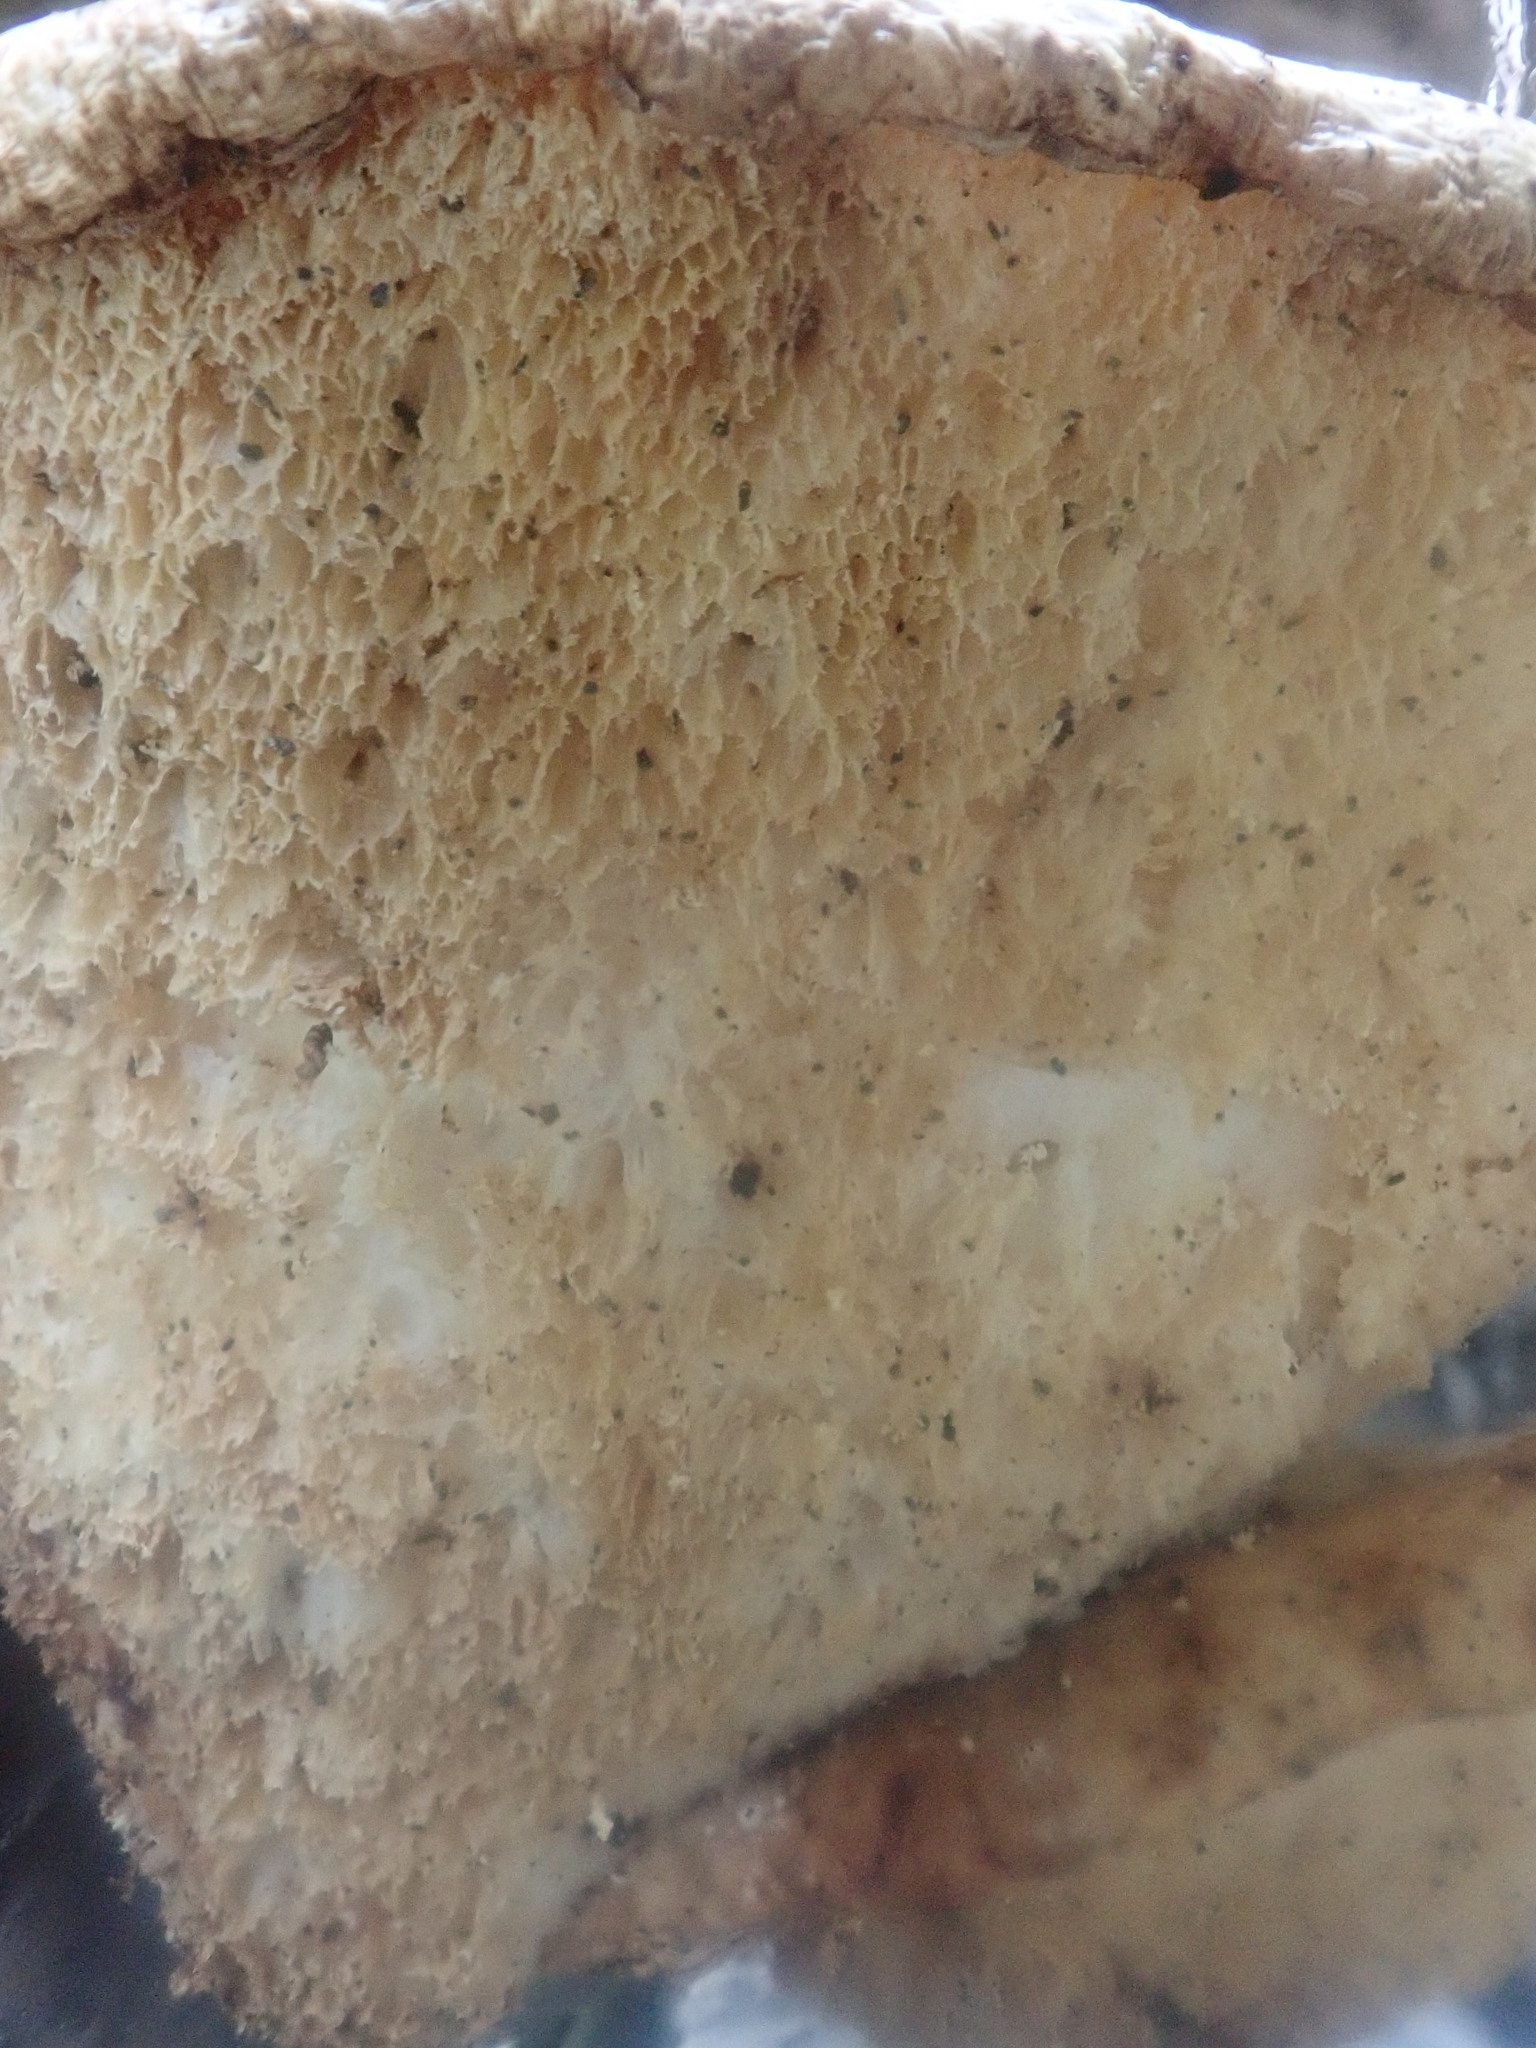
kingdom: Fungi
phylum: Basidiomycota
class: Agaricomycetes
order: Polyporales
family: Polyporaceae
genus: Cerioporus
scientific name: Cerioporus squamosus
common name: Dryad's saddle
